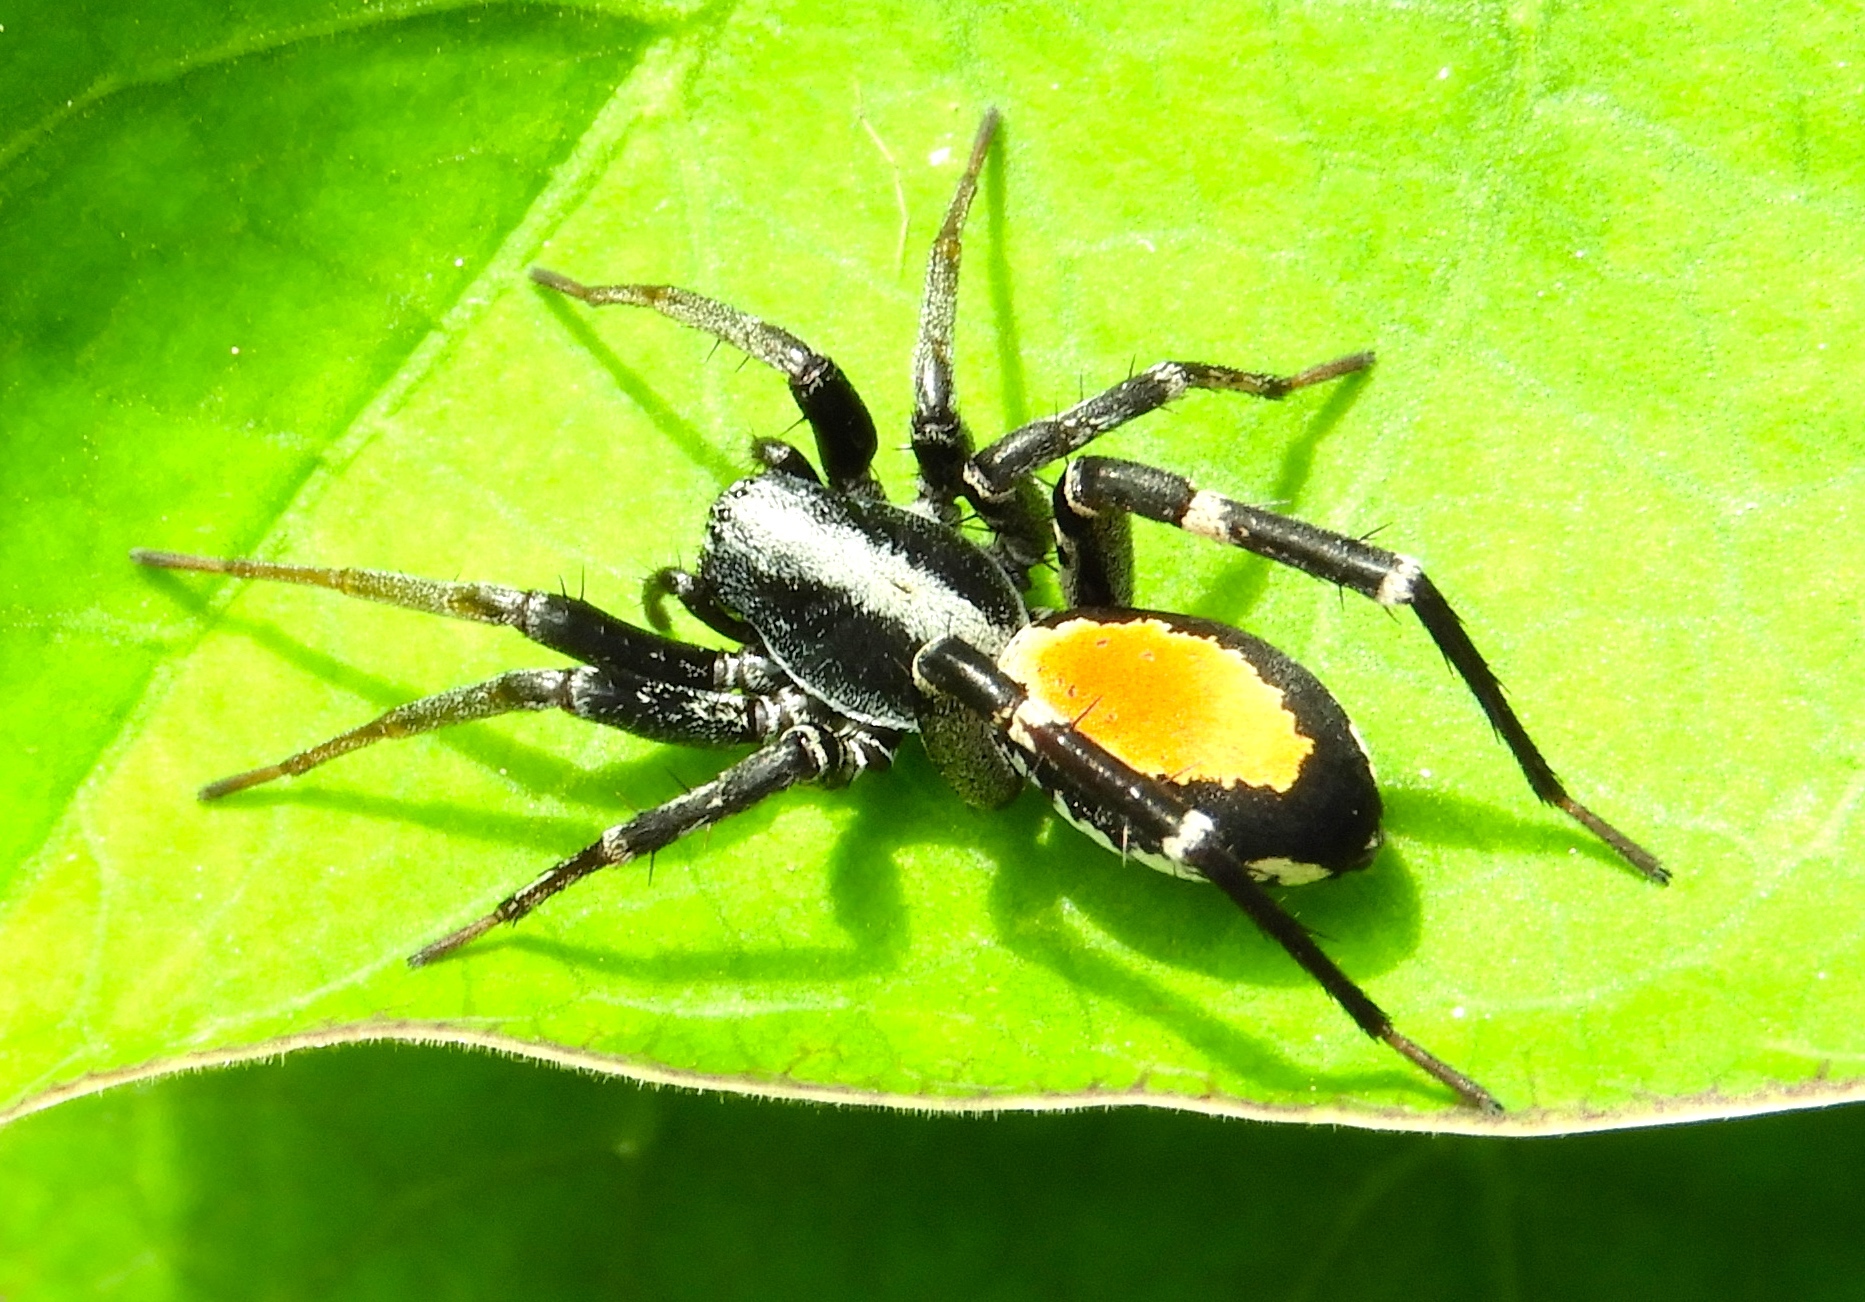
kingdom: Animalia
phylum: Arthropoda
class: Arachnida
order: Araneae
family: Corinnidae
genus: Castianeira
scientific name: Castianeira
